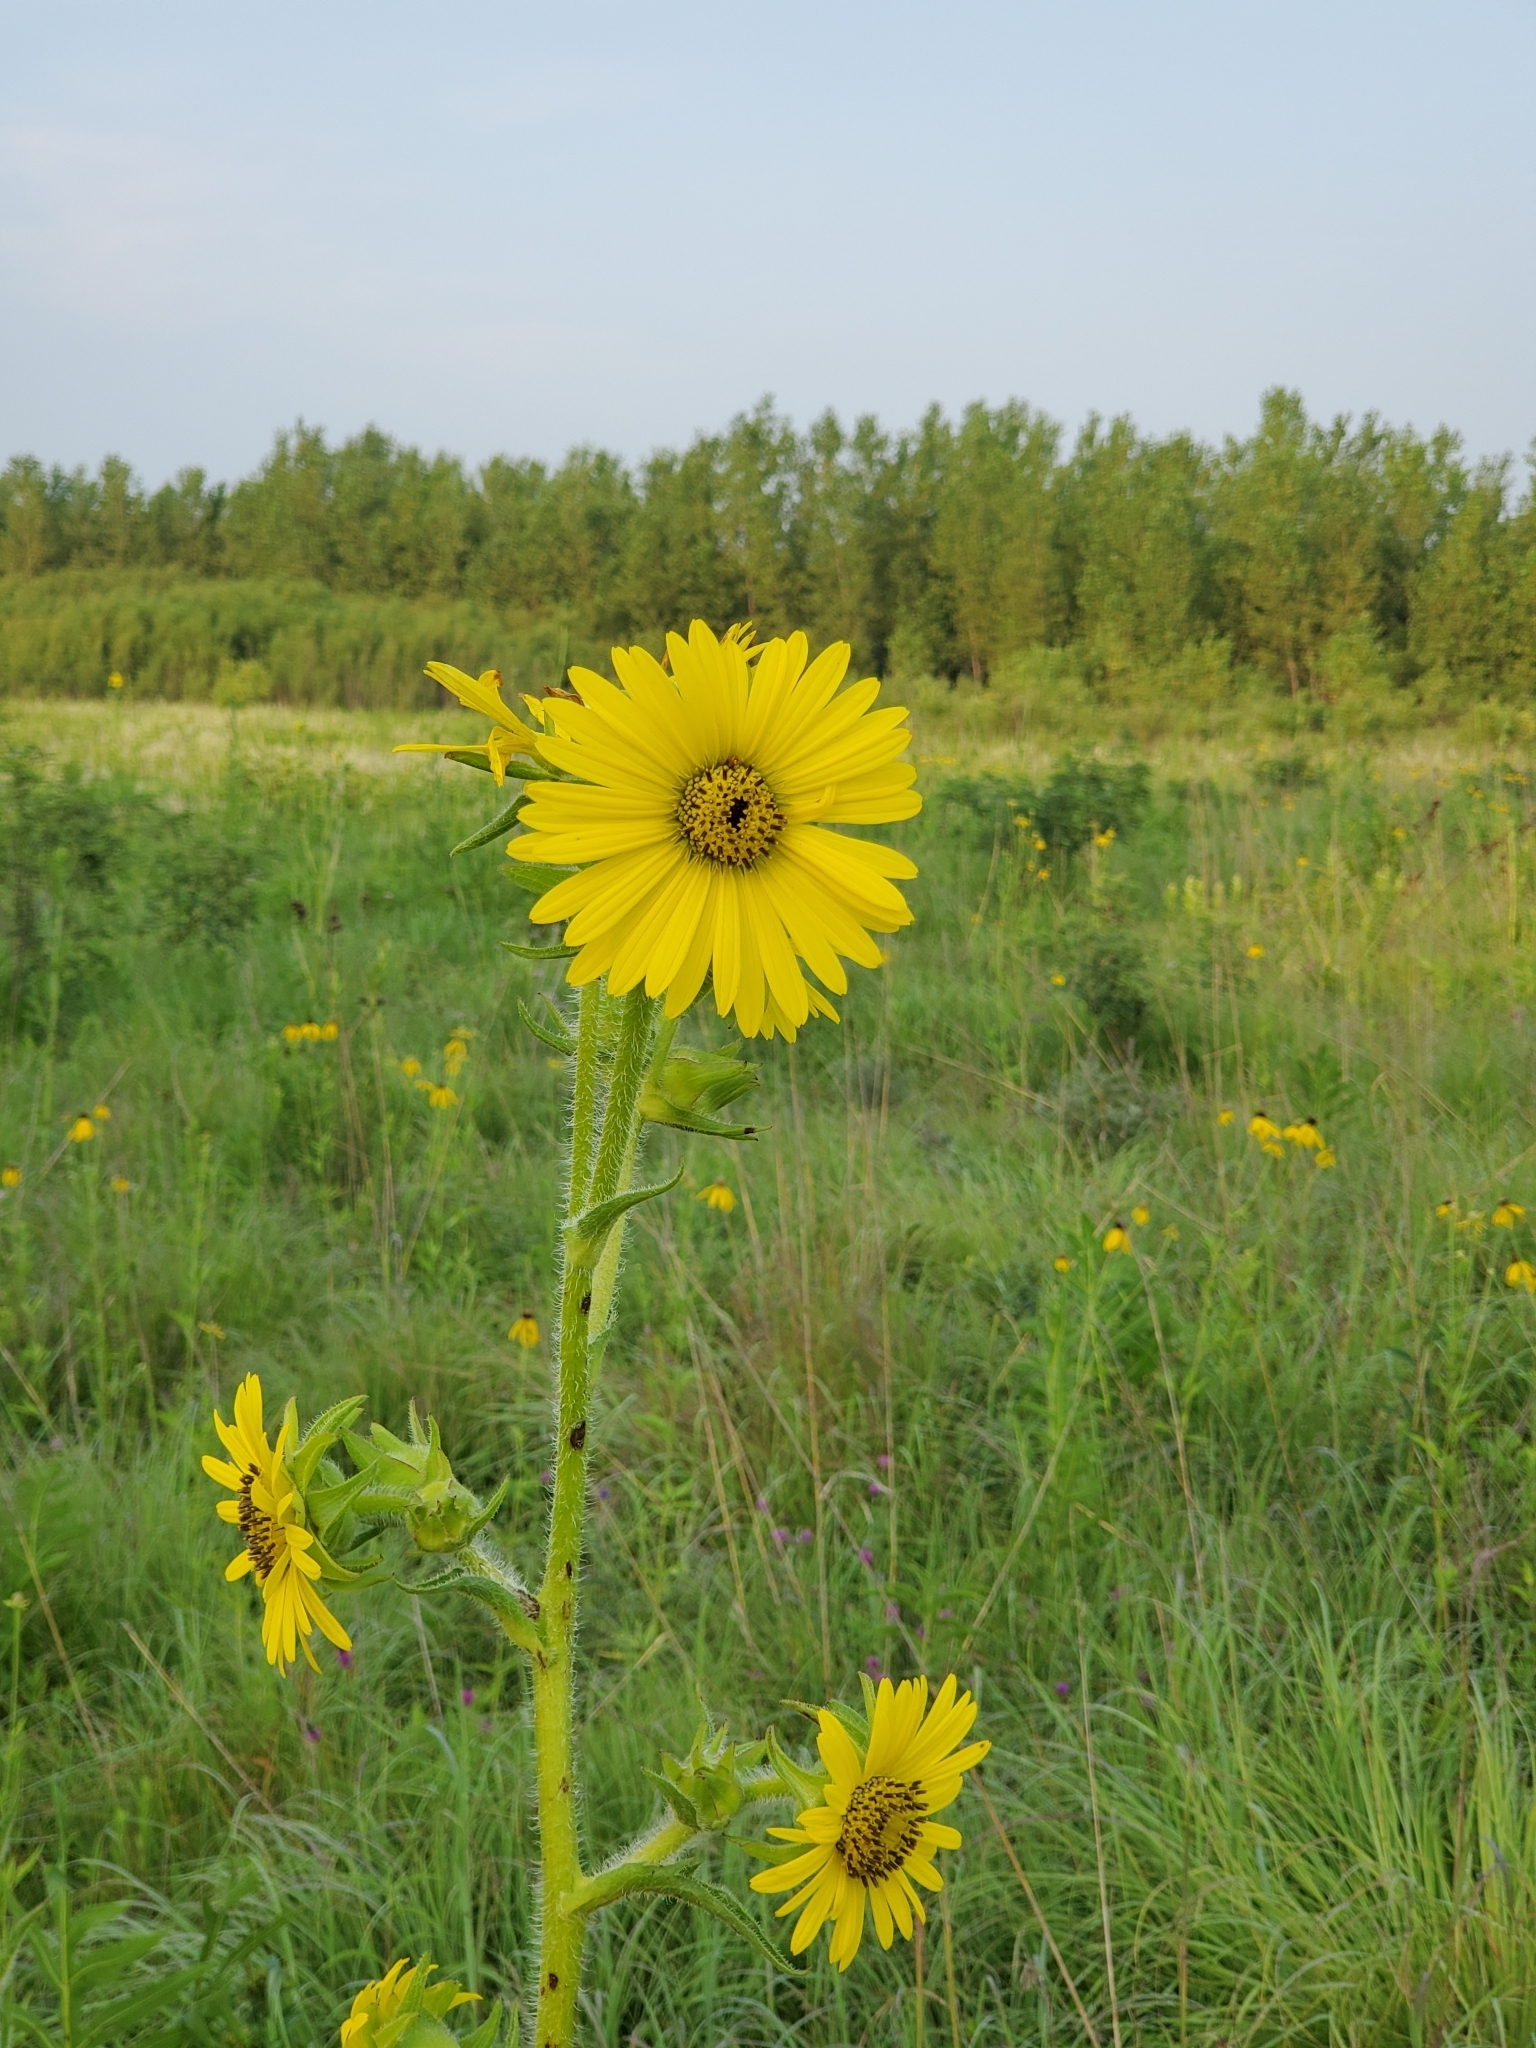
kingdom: Plantae
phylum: Tracheophyta
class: Magnoliopsida
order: Asterales
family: Asteraceae
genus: Silphium
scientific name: Silphium laciniatum
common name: Polarplant
